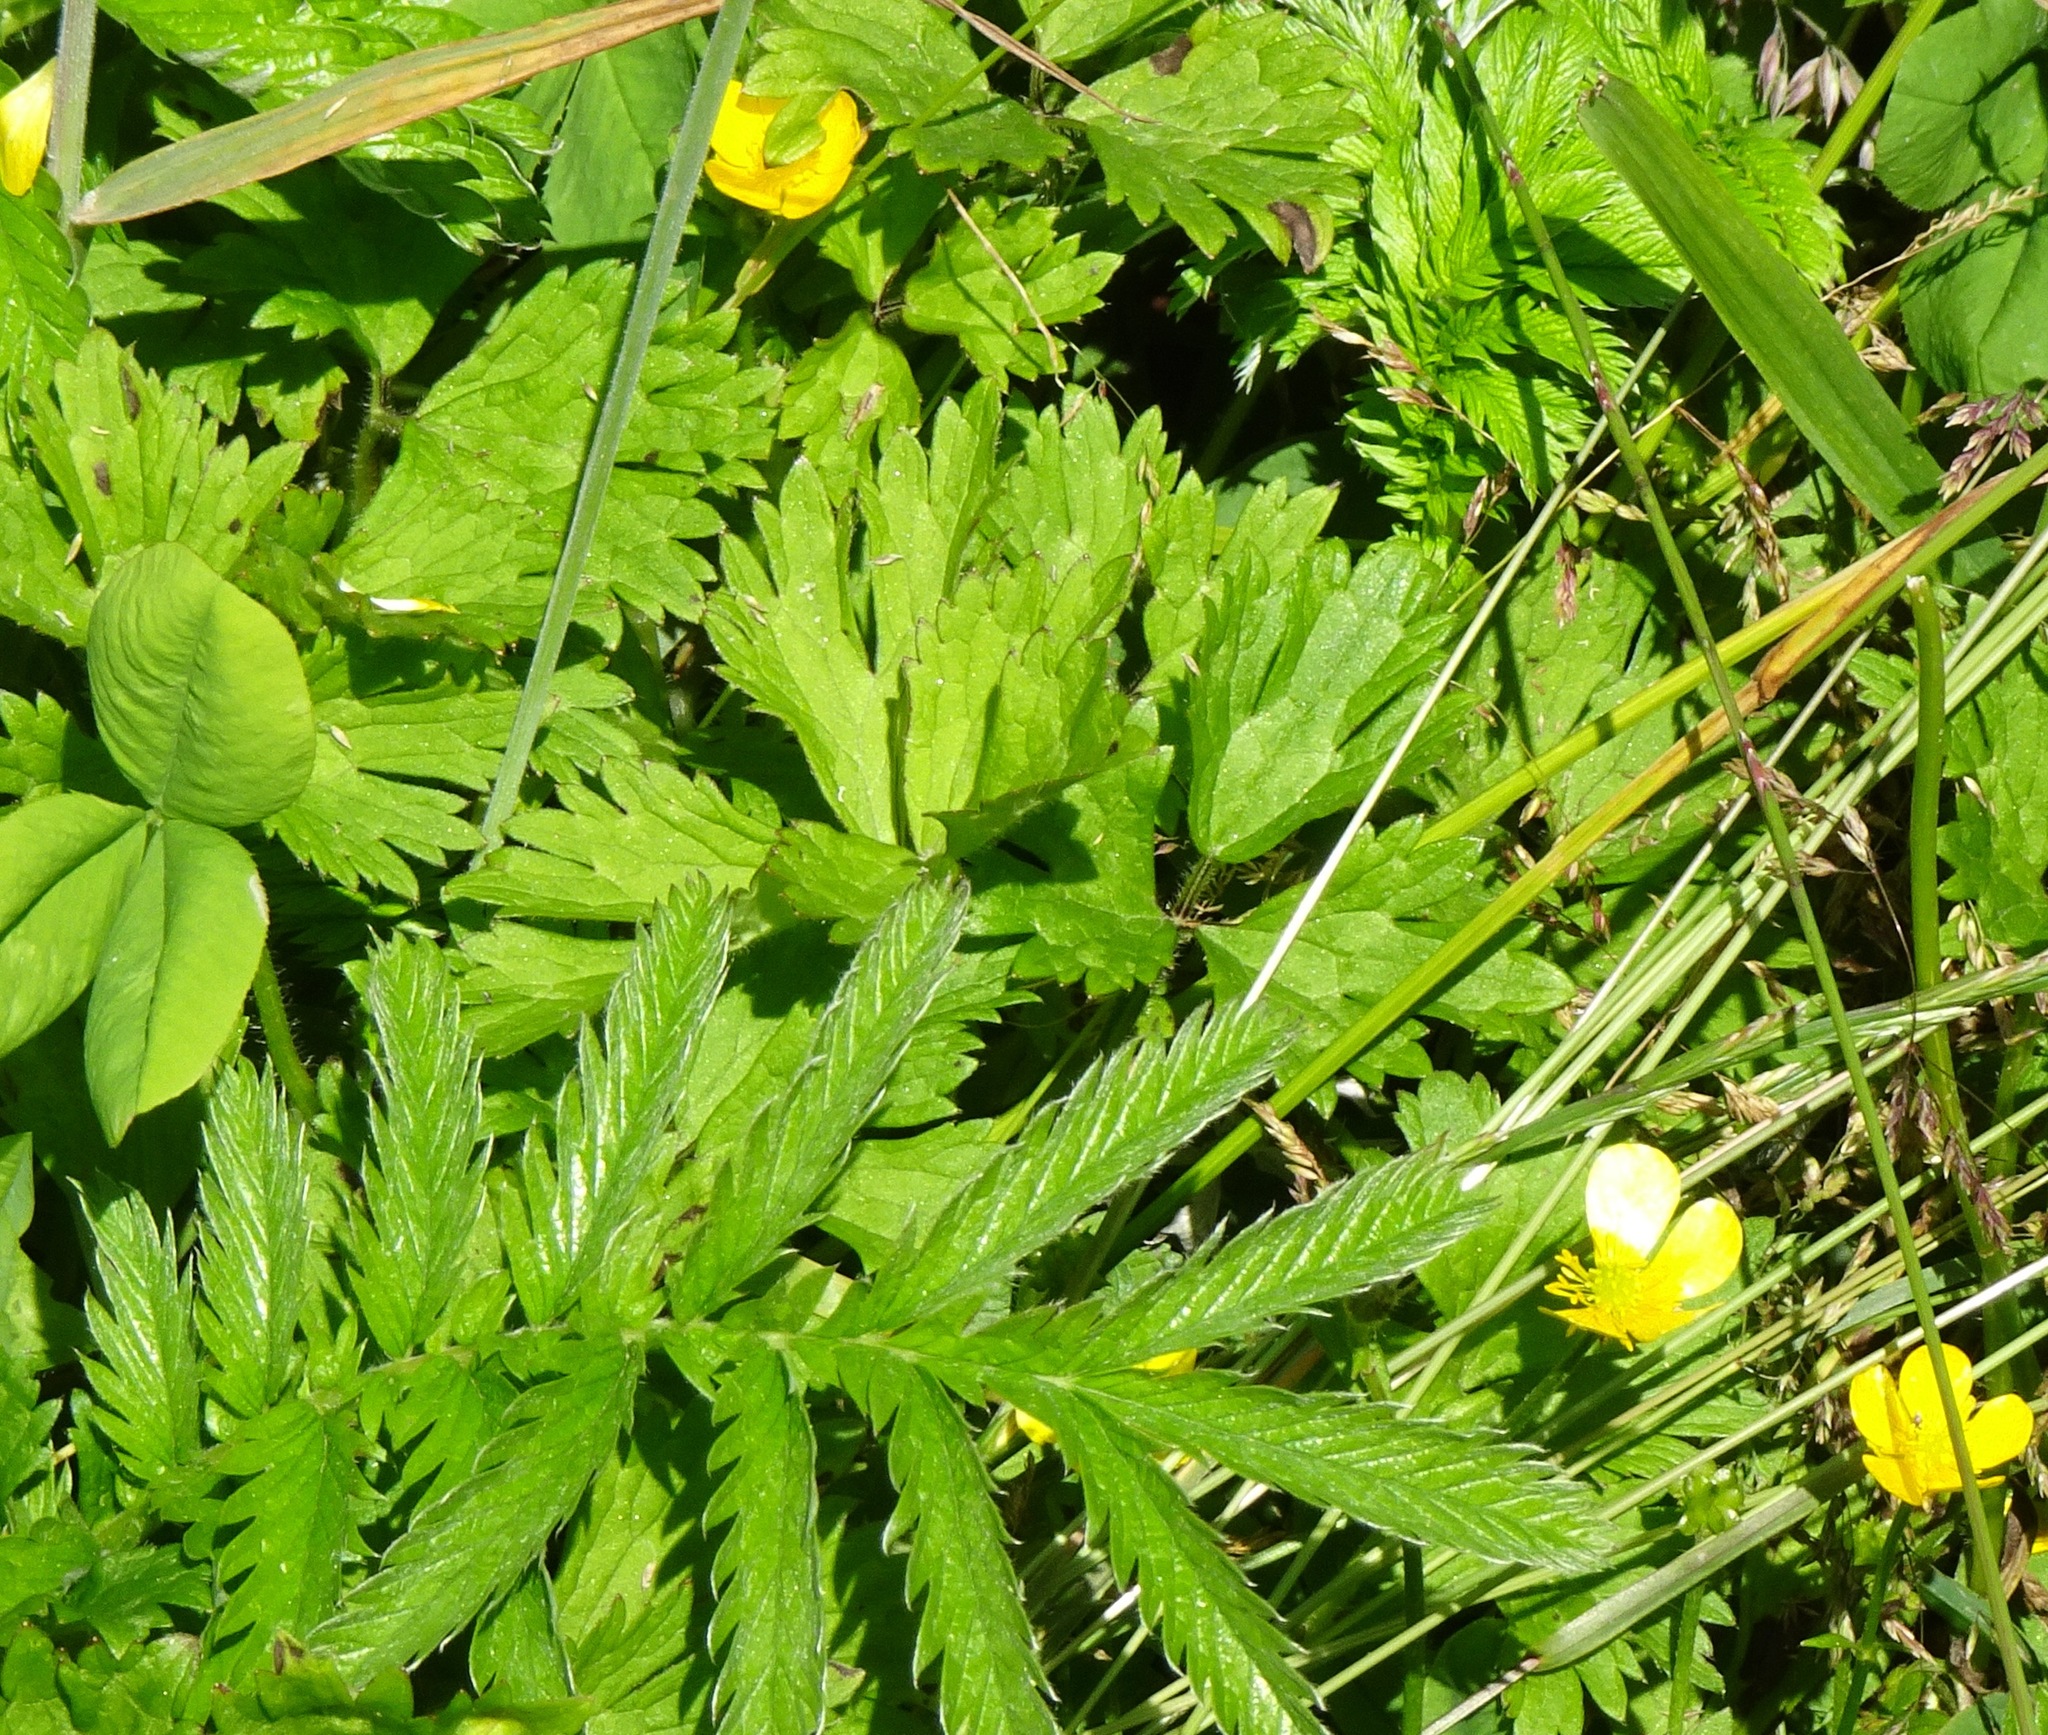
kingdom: Plantae
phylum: Tracheophyta
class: Magnoliopsida
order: Rosales
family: Rosaceae
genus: Argentina
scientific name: Argentina anserina
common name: Common silverweed
